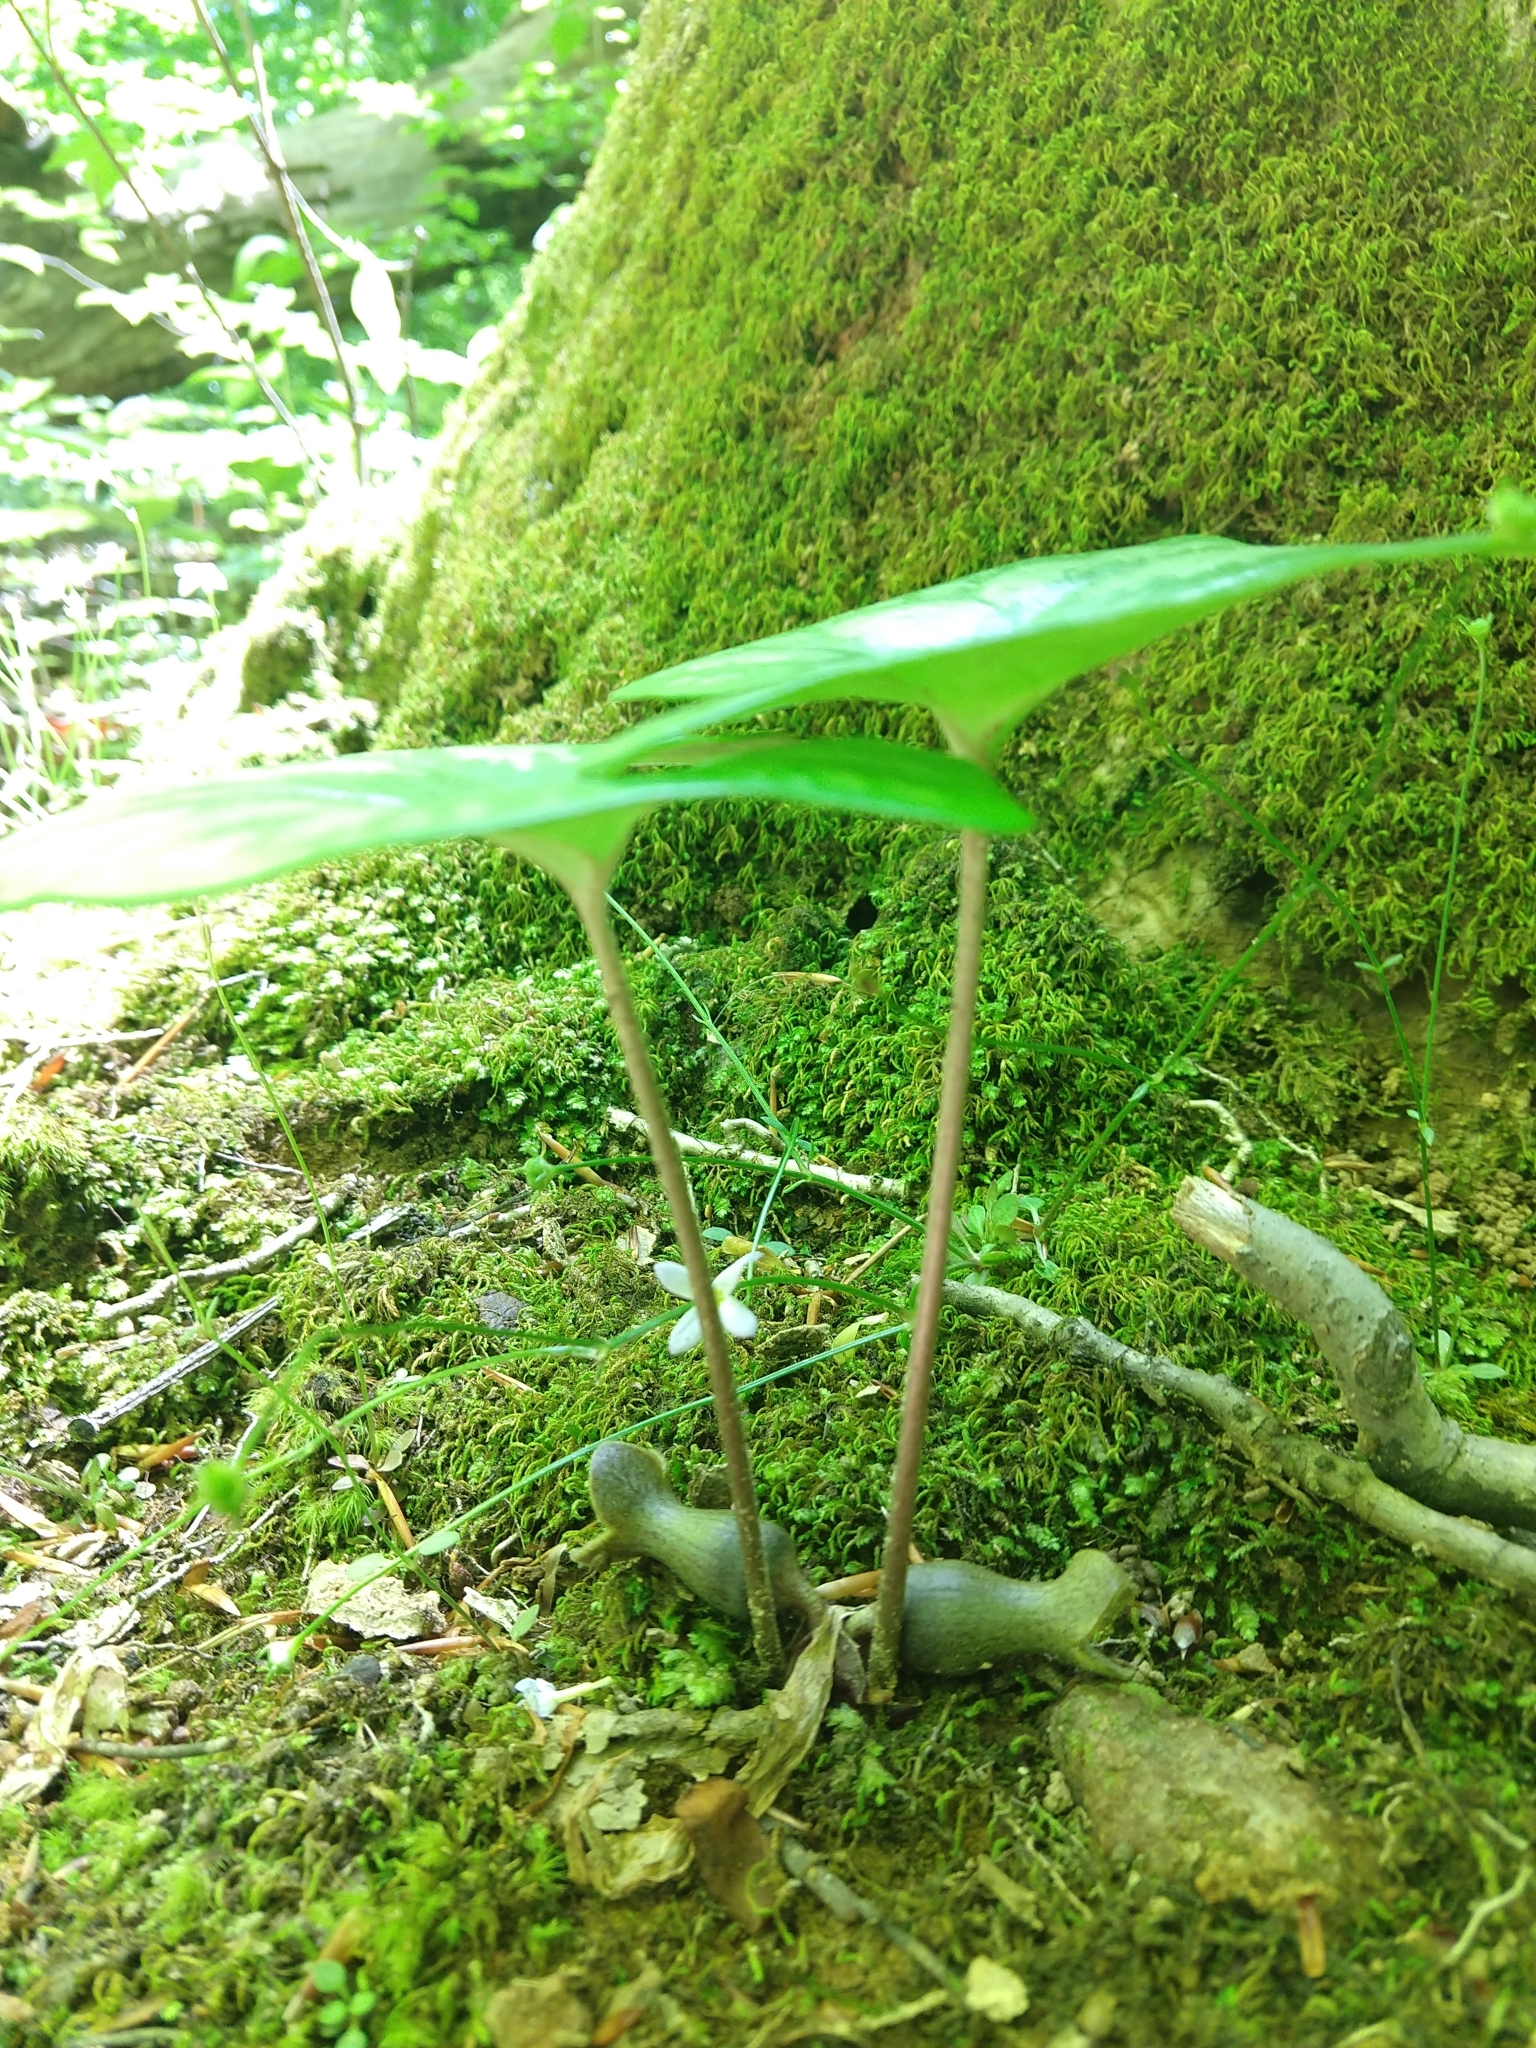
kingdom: Plantae
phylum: Tracheophyta
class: Magnoliopsida
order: Piperales
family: Aristolochiaceae
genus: Hexastylis
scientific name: Hexastylis arifolia
